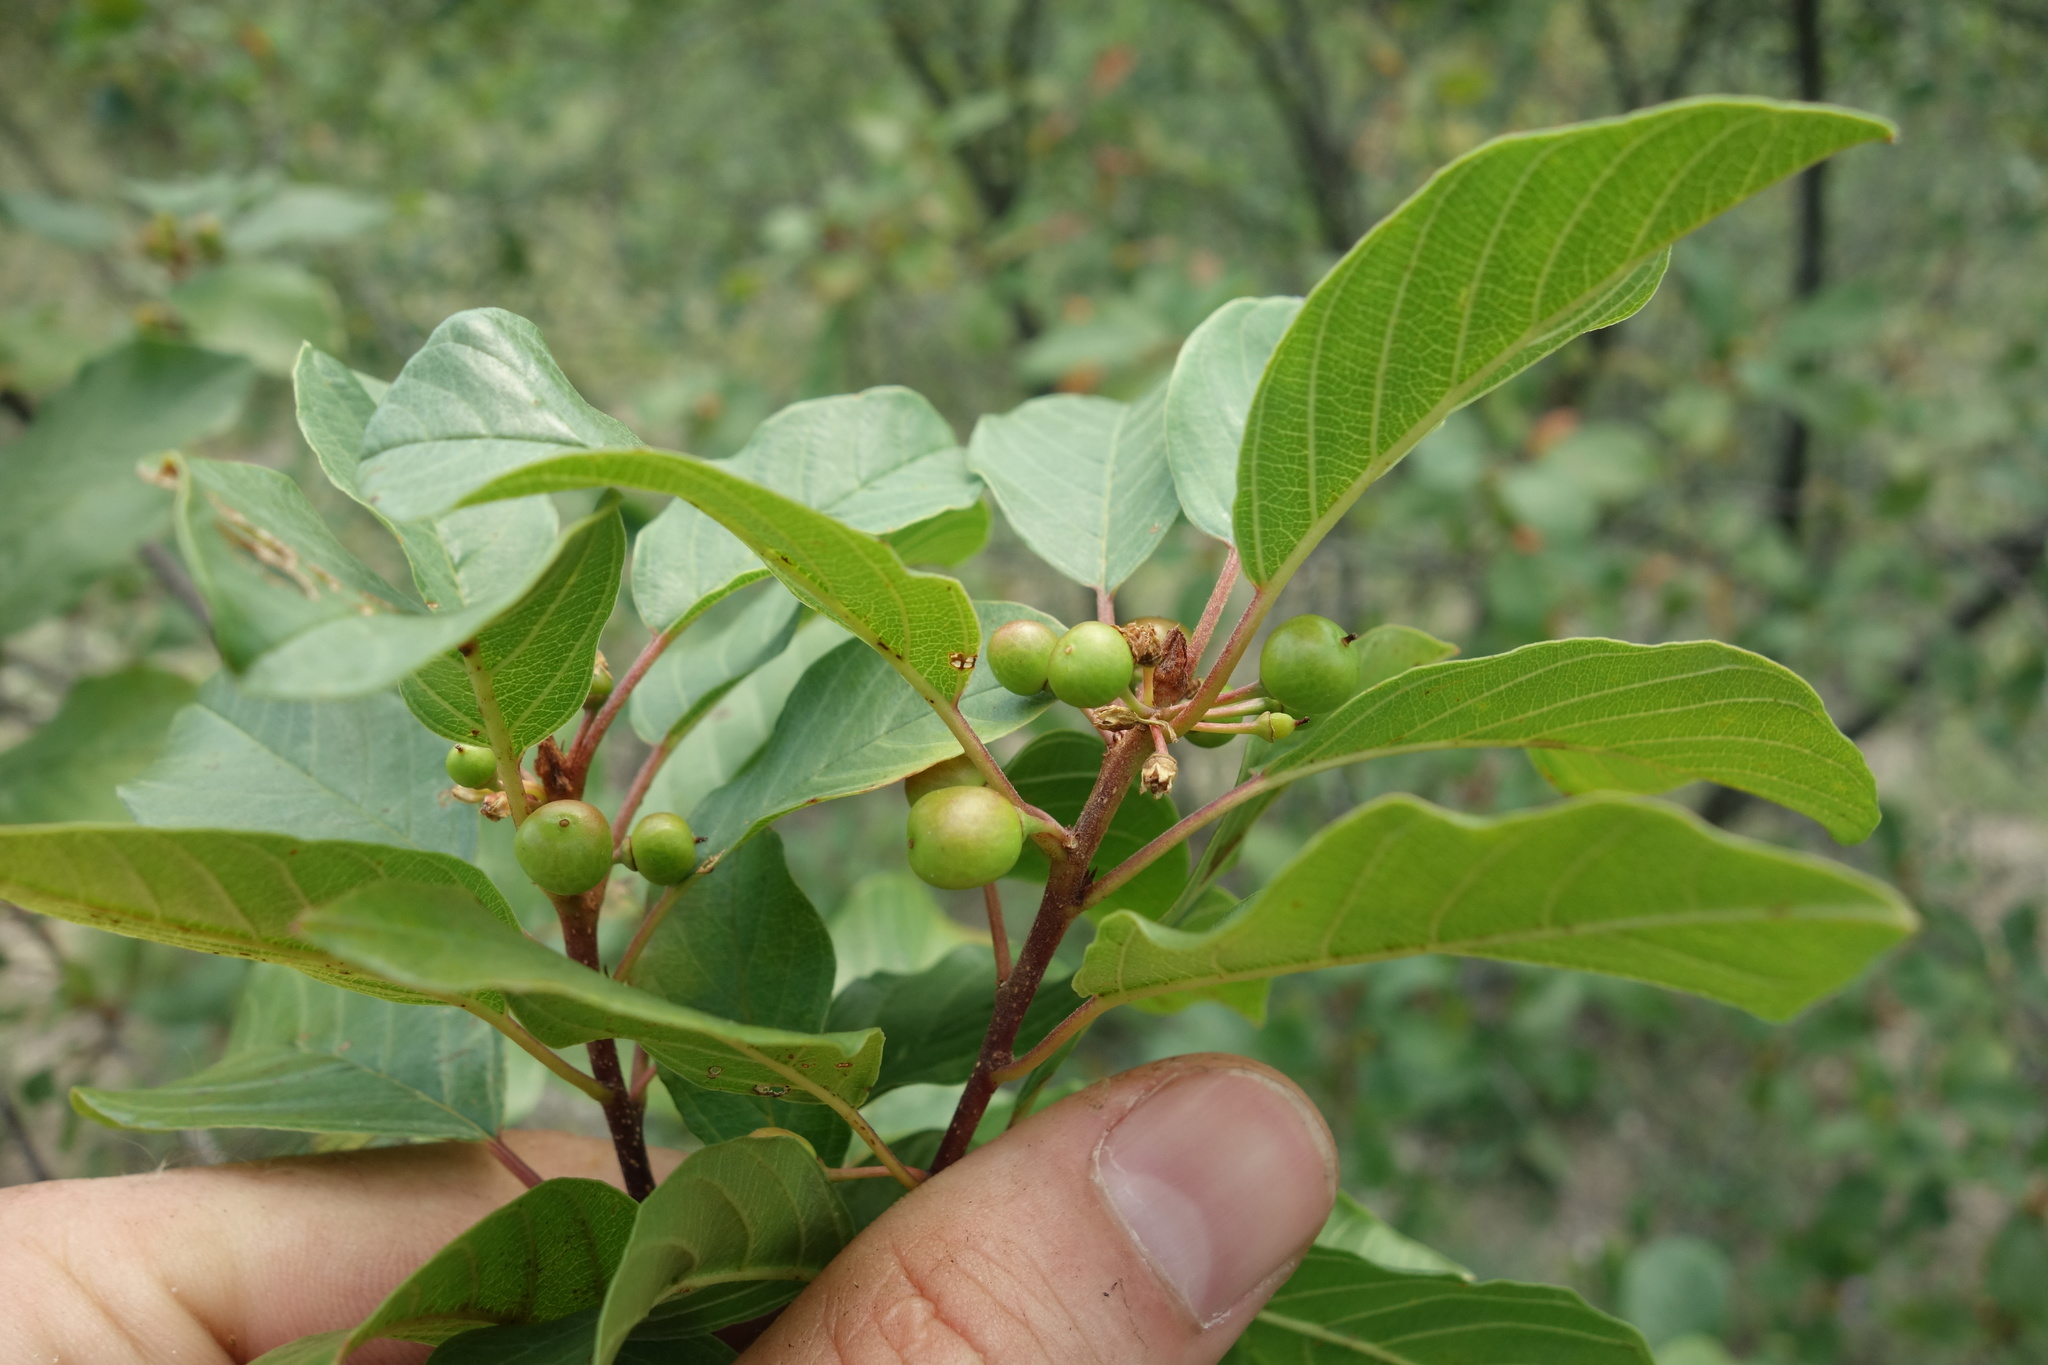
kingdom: Plantae
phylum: Tracheophyta
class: Magnoliopsida
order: Rosales
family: Rhamnaceae
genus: Frangula
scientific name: Frangula alnus
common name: Alder buckthorn
